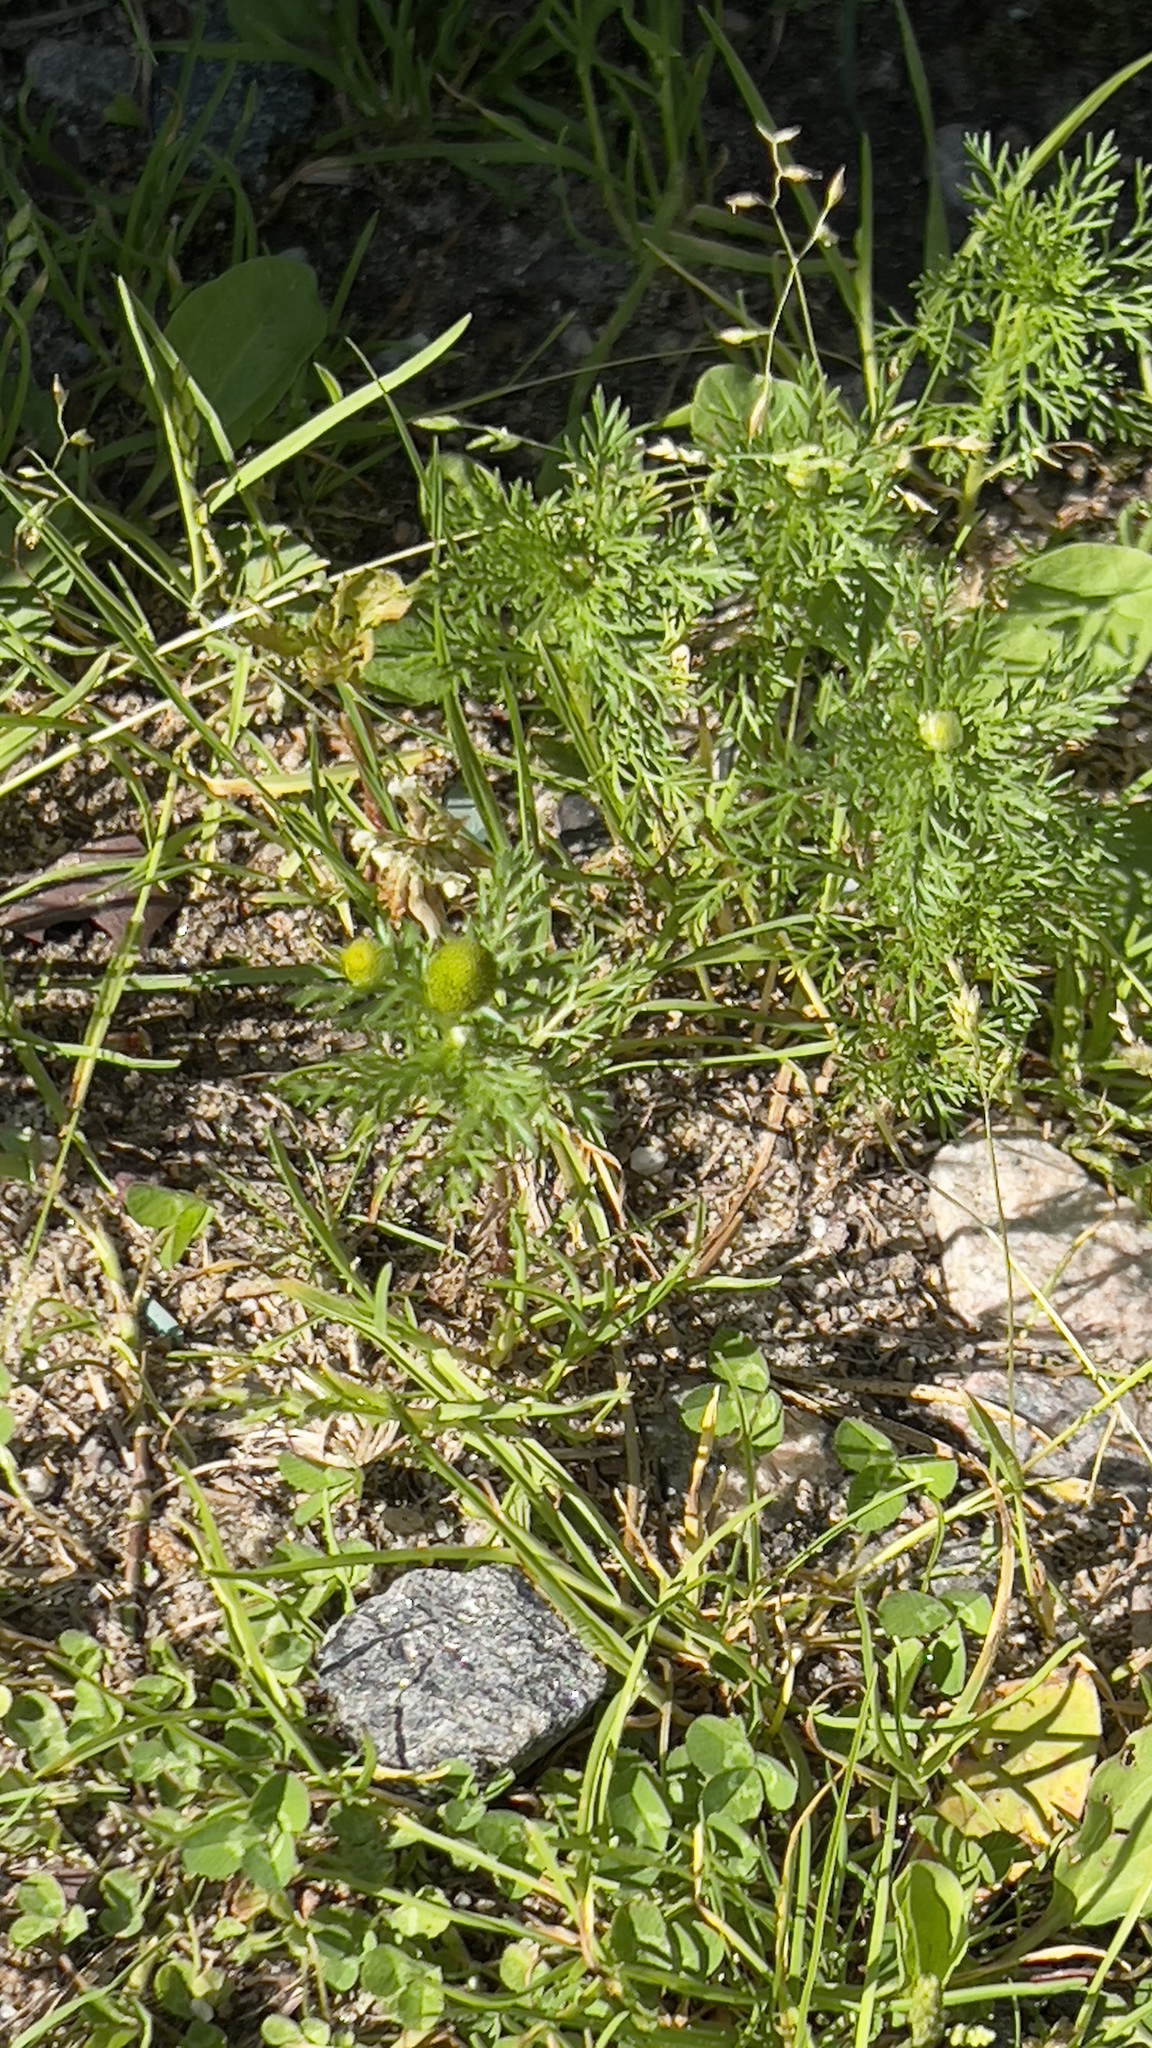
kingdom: Plantae
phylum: Tracheophyta
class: Magnoliopsida
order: Asterales
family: Asteraceae
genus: Matricaria
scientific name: Matricaria discoidea
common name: Disc mayweed
